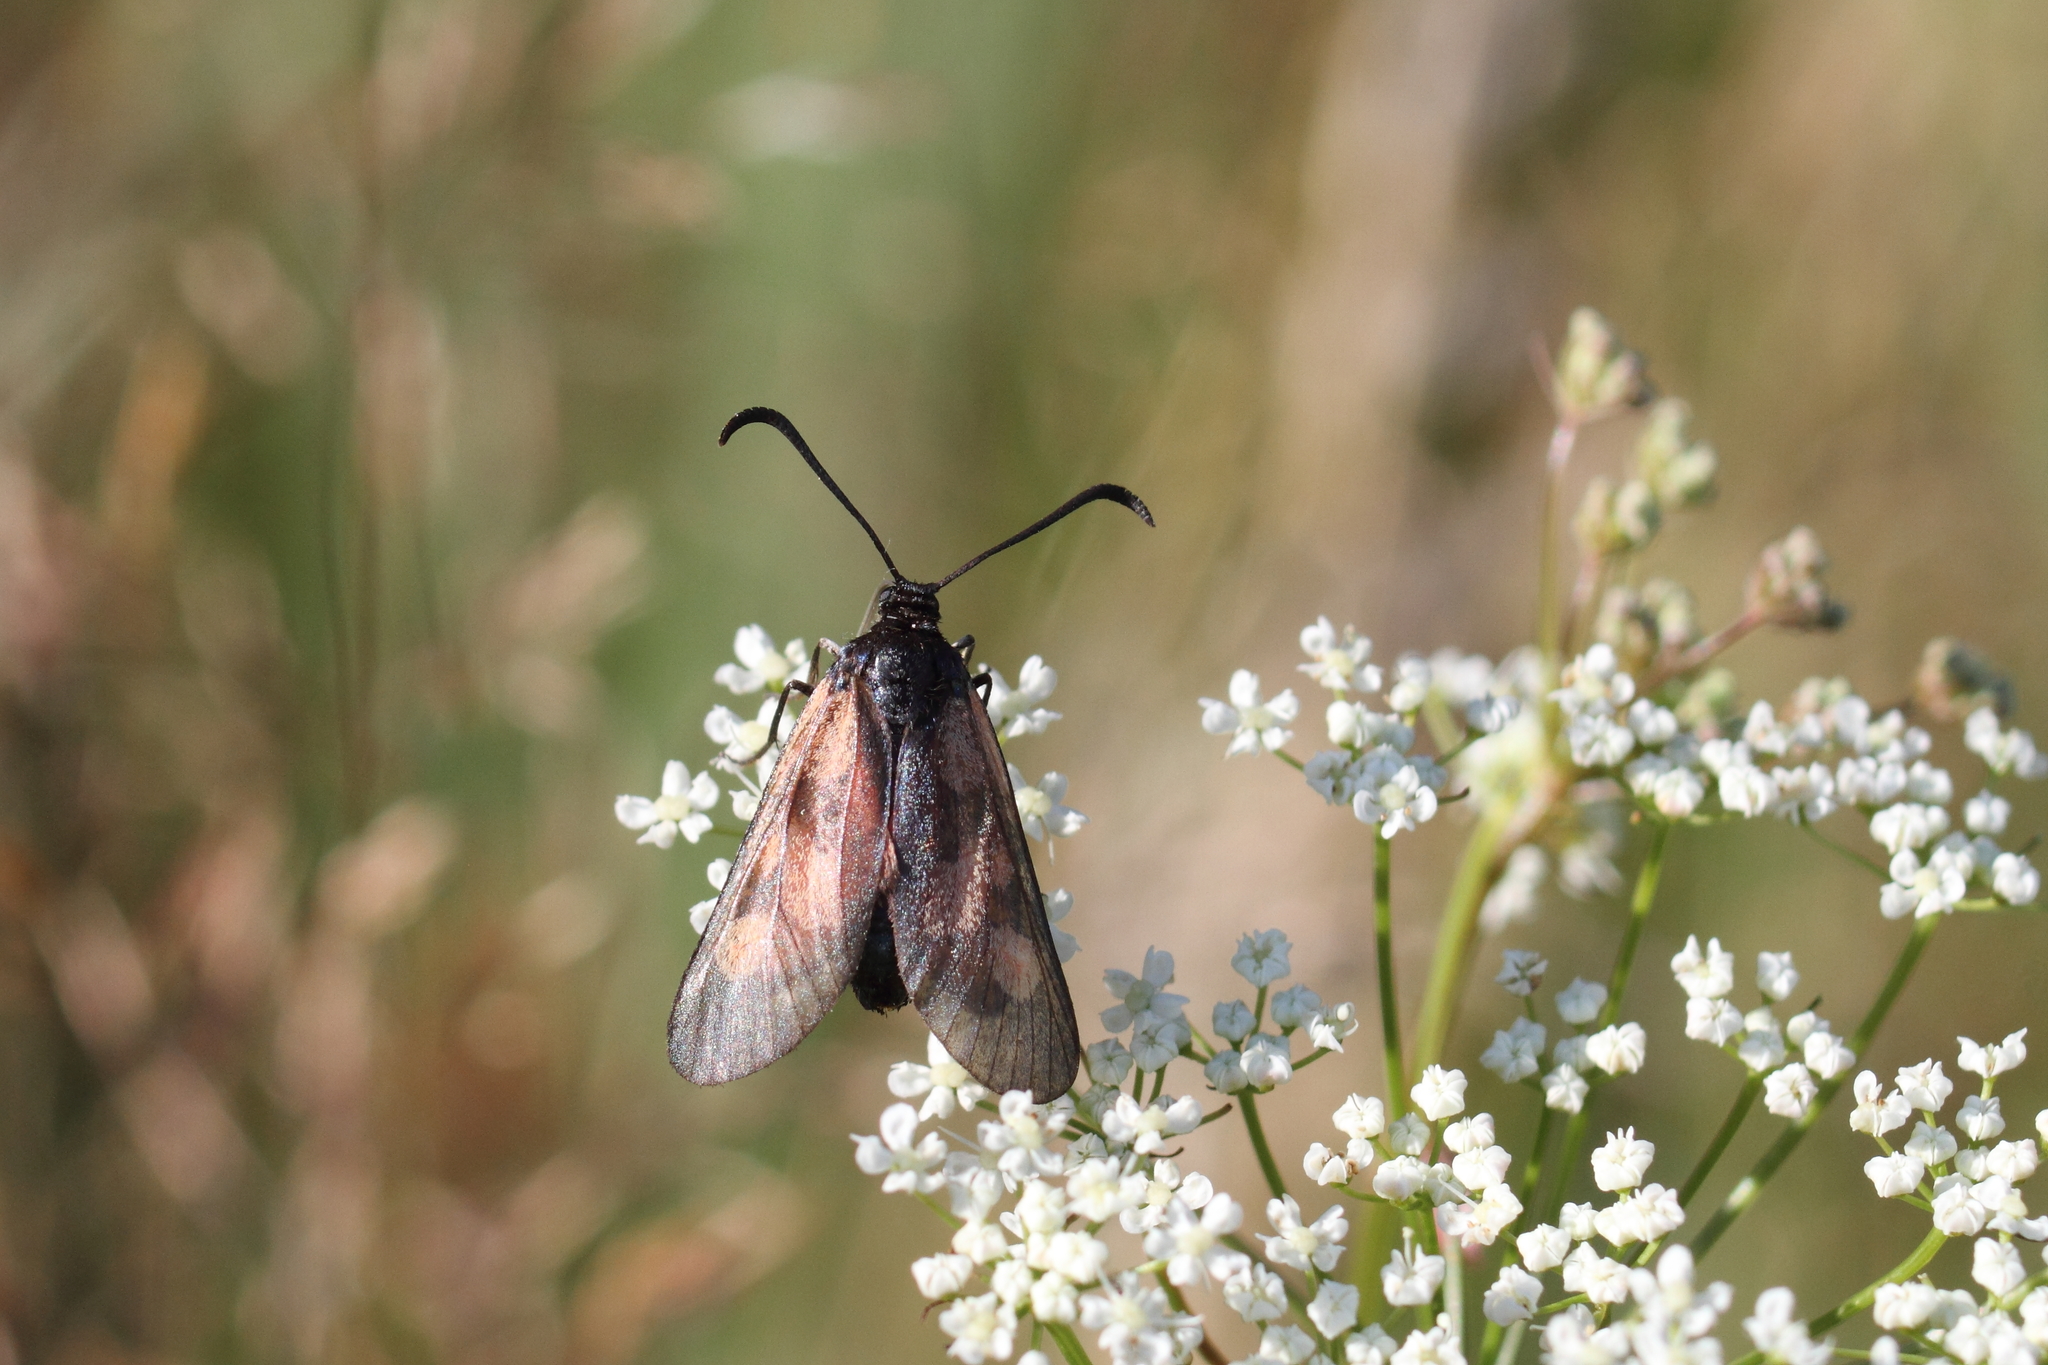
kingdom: Animalia
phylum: Arthropoda
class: Insecta
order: Lepidoptera
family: Zygaenidae
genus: Zygaena
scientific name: Zygaena viciae
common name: New forest burnet
